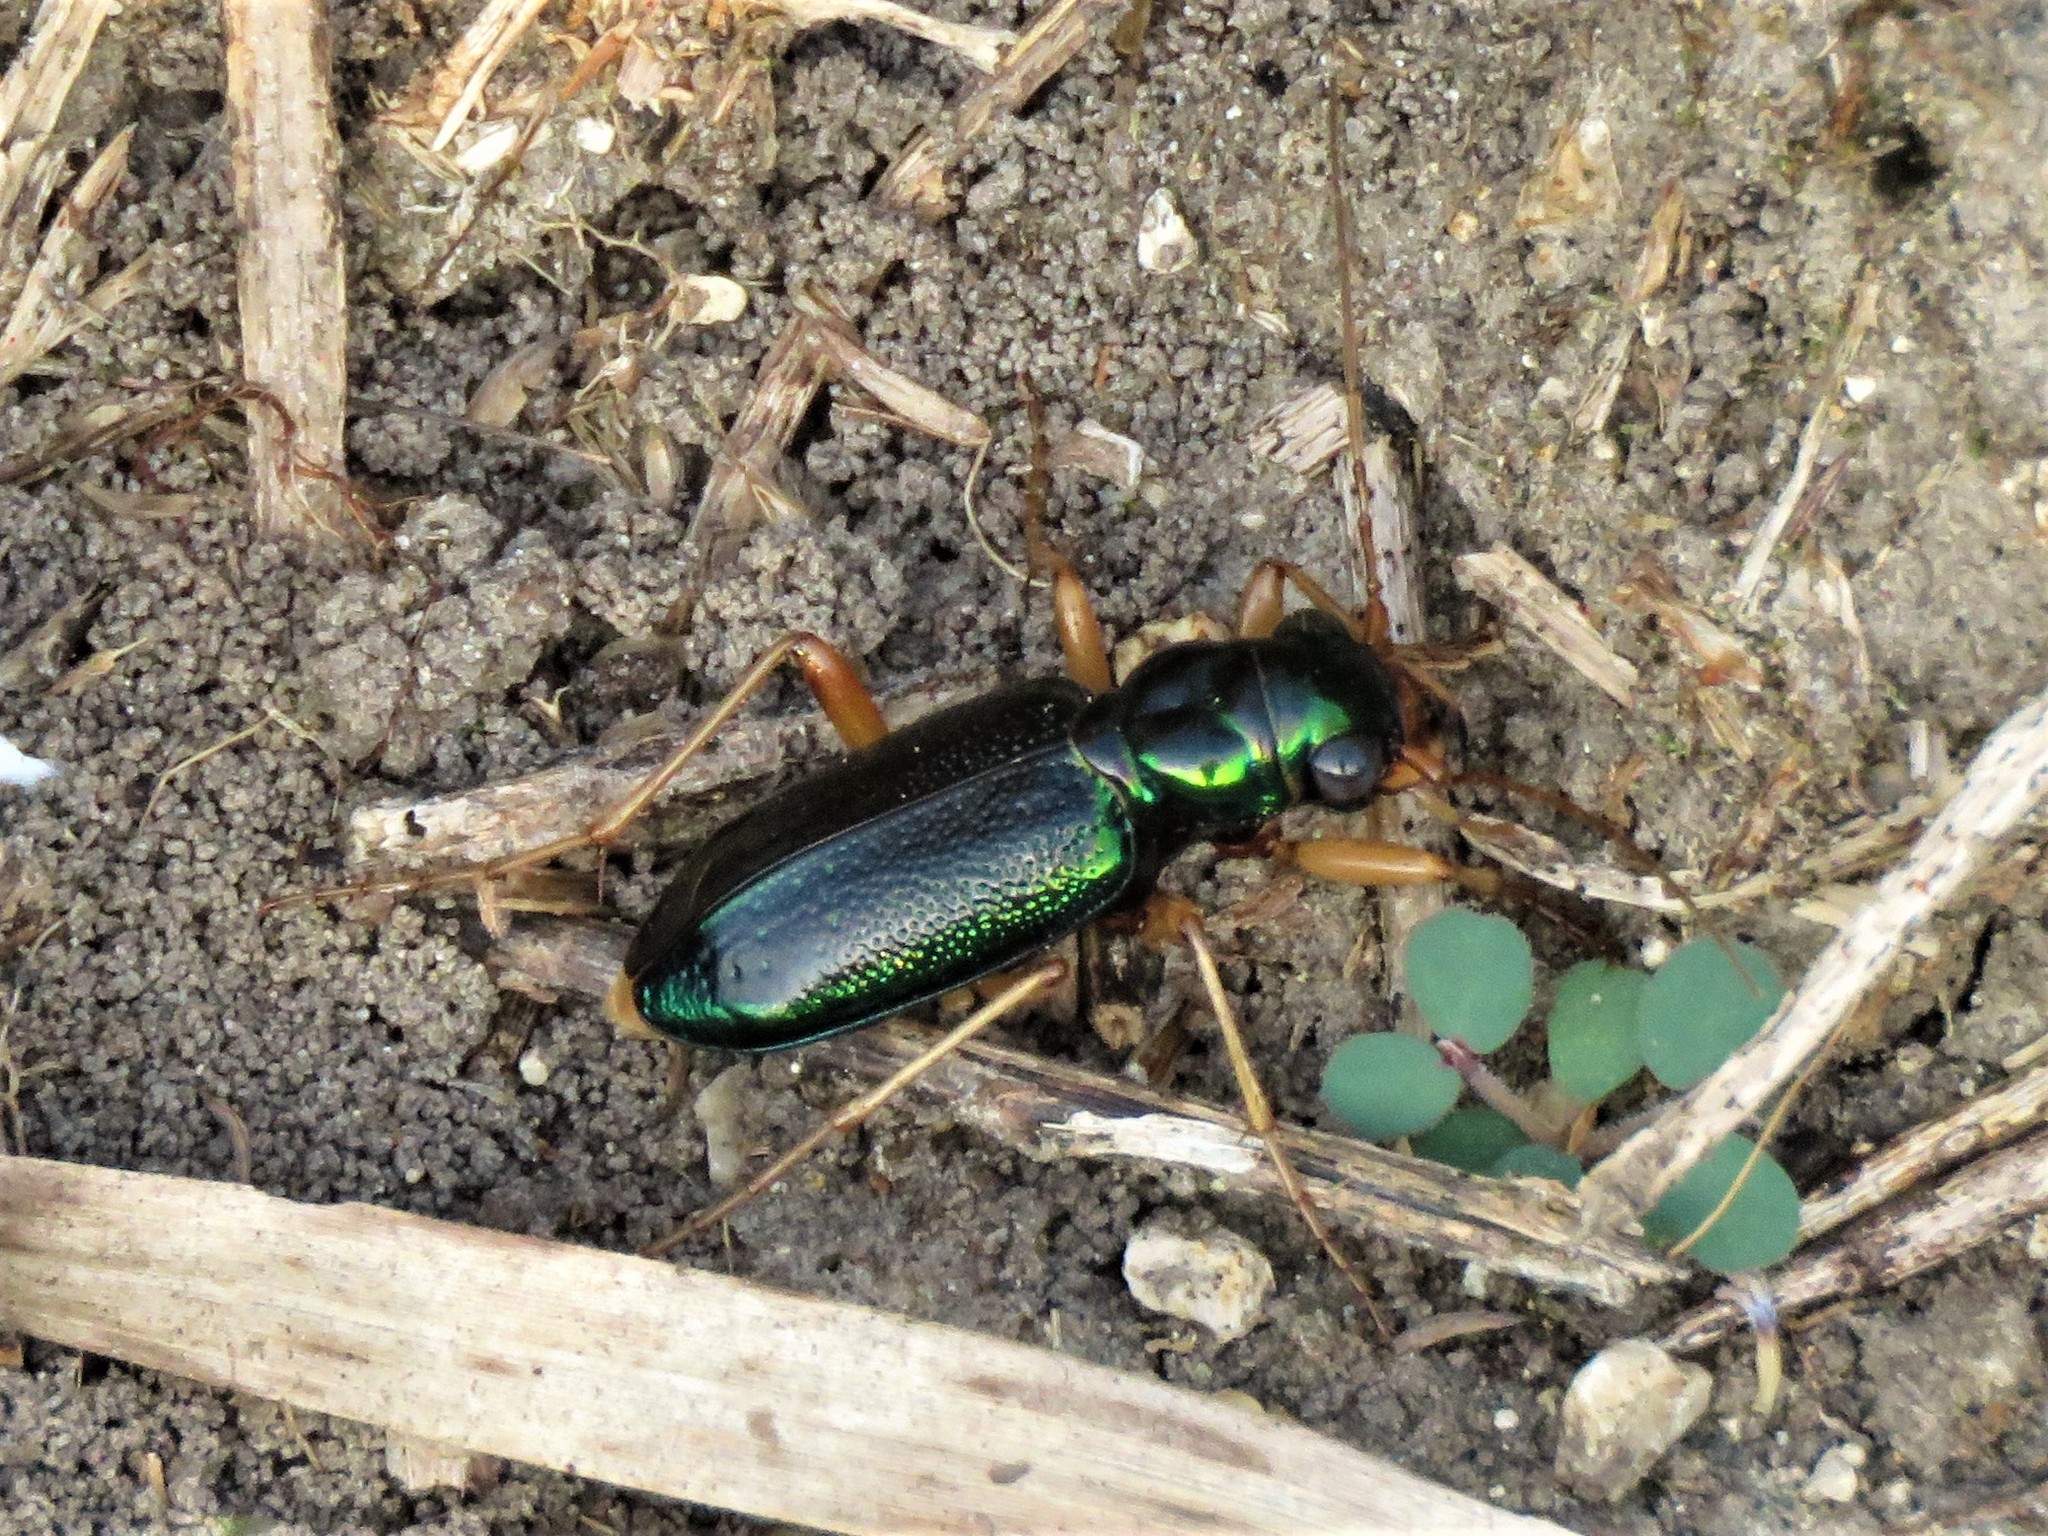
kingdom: Animalia
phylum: Arthropoda
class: Insecta
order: Coleoptera
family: Carabidae
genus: Tetracha
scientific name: Tetracha virginica
